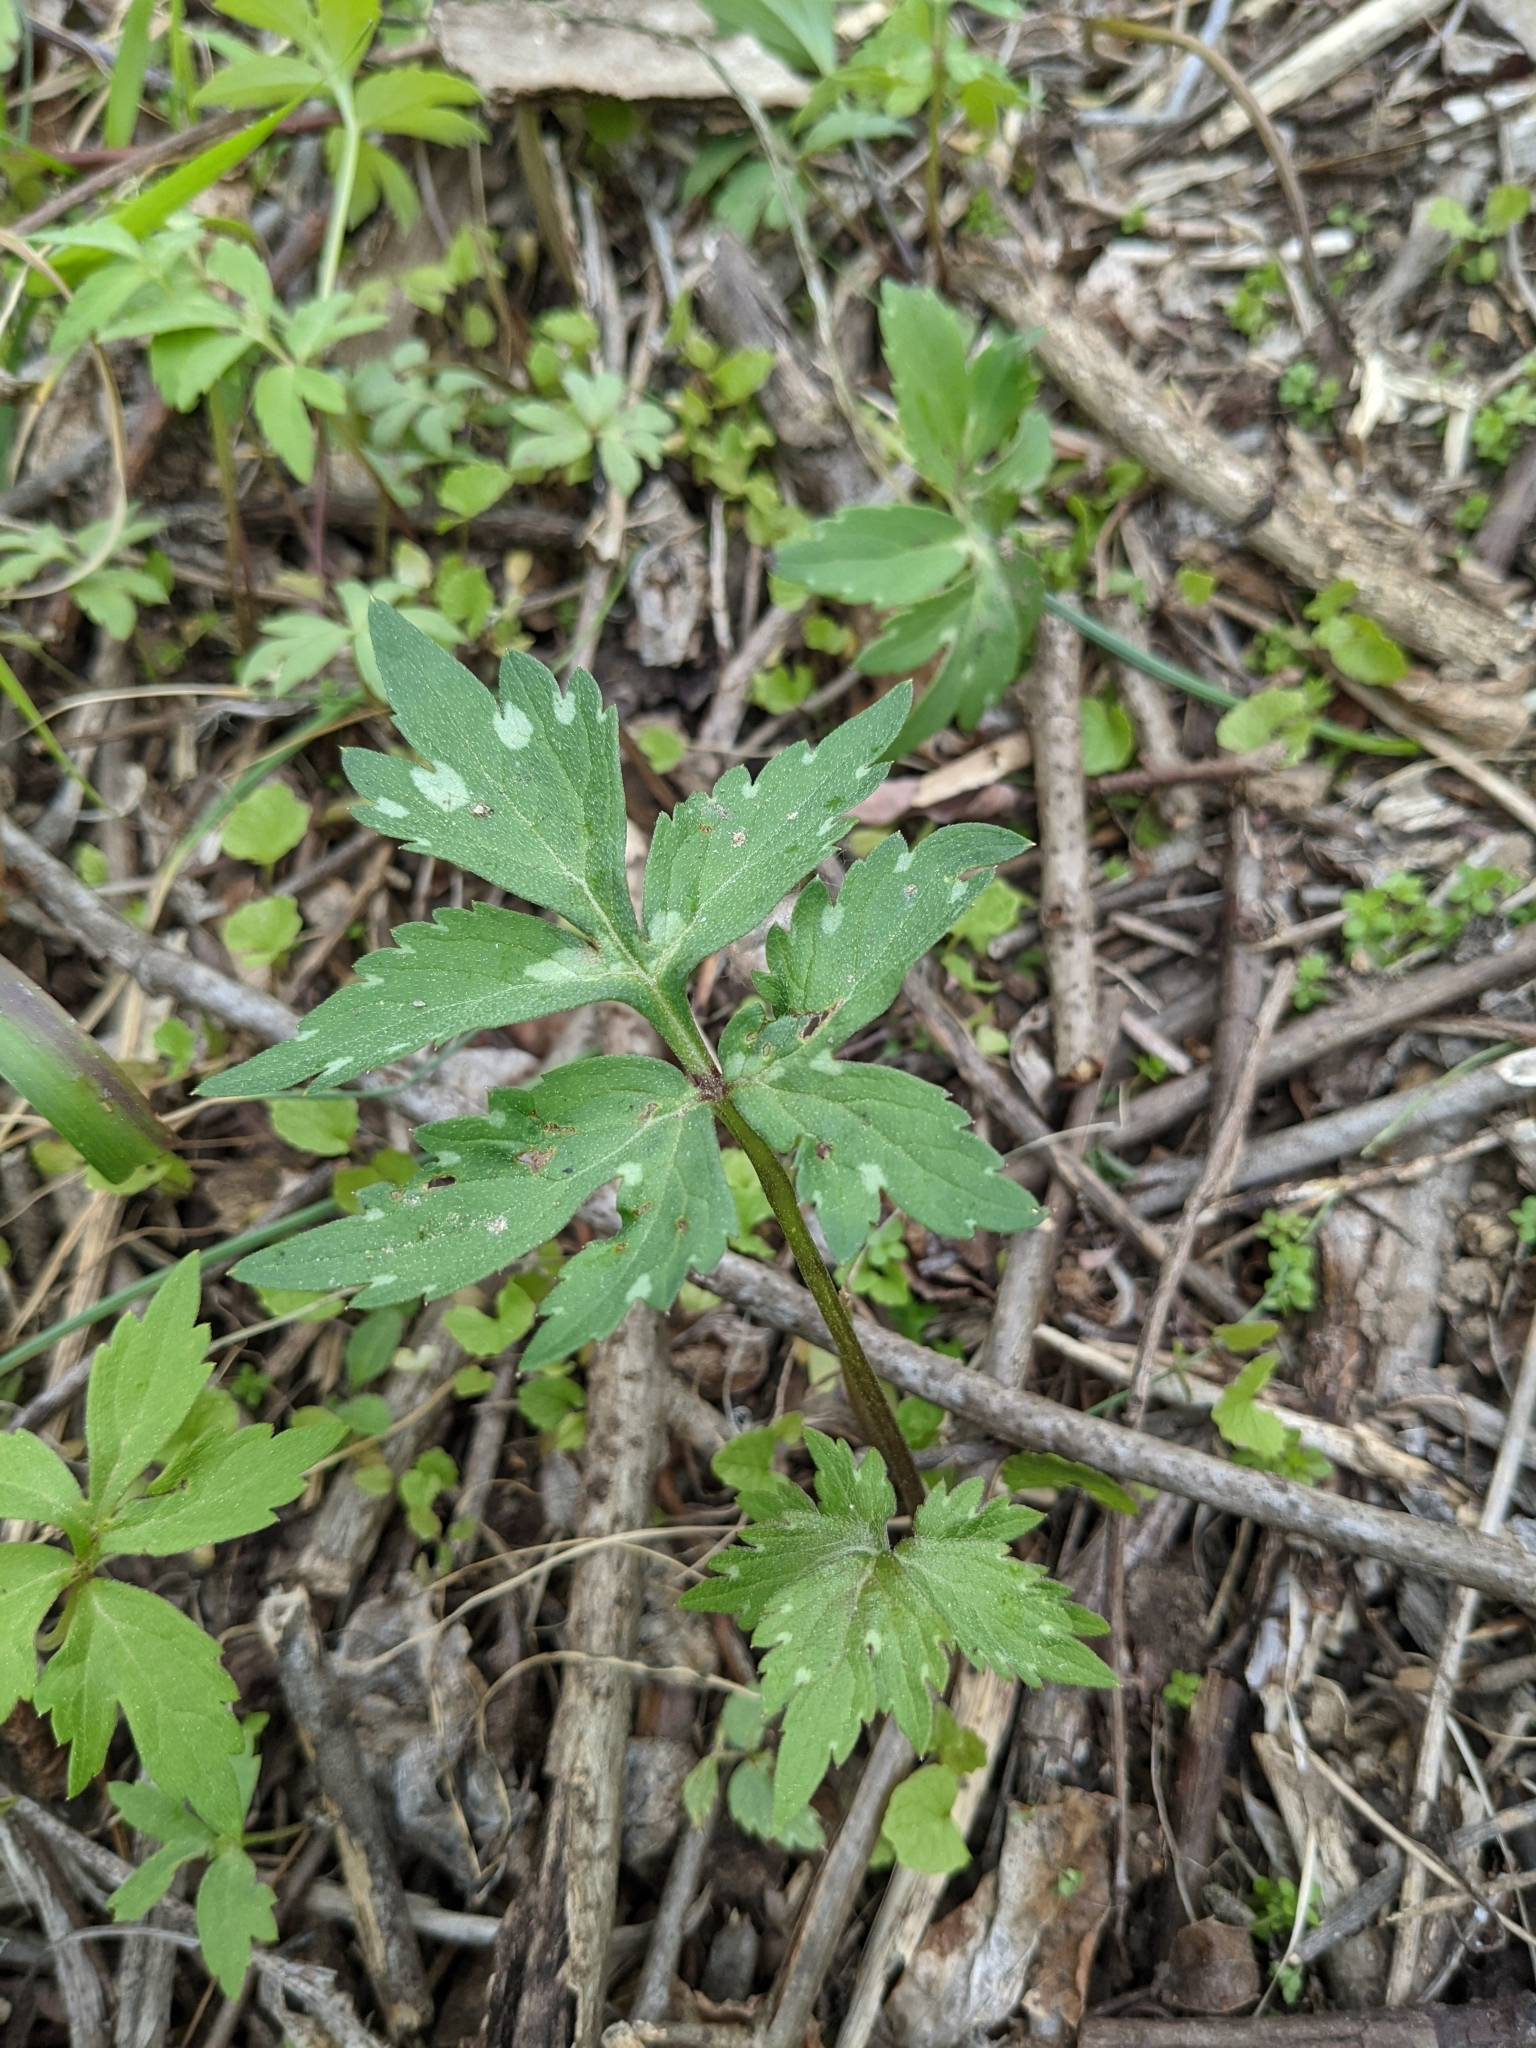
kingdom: Plantae
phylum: Tracheophyta
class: Magnoliopsida
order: Boraginales
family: Hydrophyllaceae
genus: Hydrophyllum
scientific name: Hydrophyllum virginianum
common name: Virginia waterleaf
